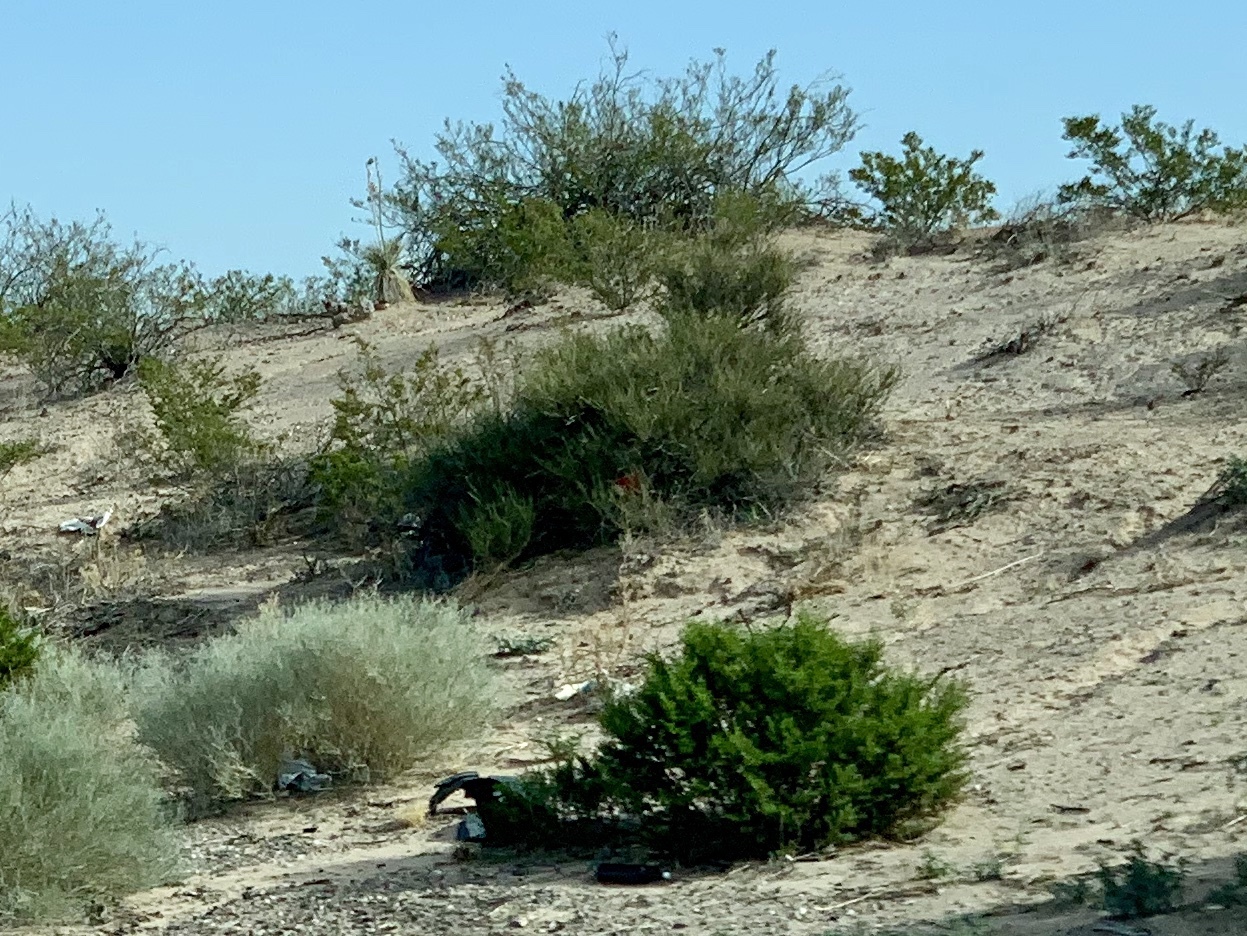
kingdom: Plantae
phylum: Tracheophyta
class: Magnoliopsida
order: Zygophyllales
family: Zygophyllaceae
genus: Larrea
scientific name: Larrea tridentata
